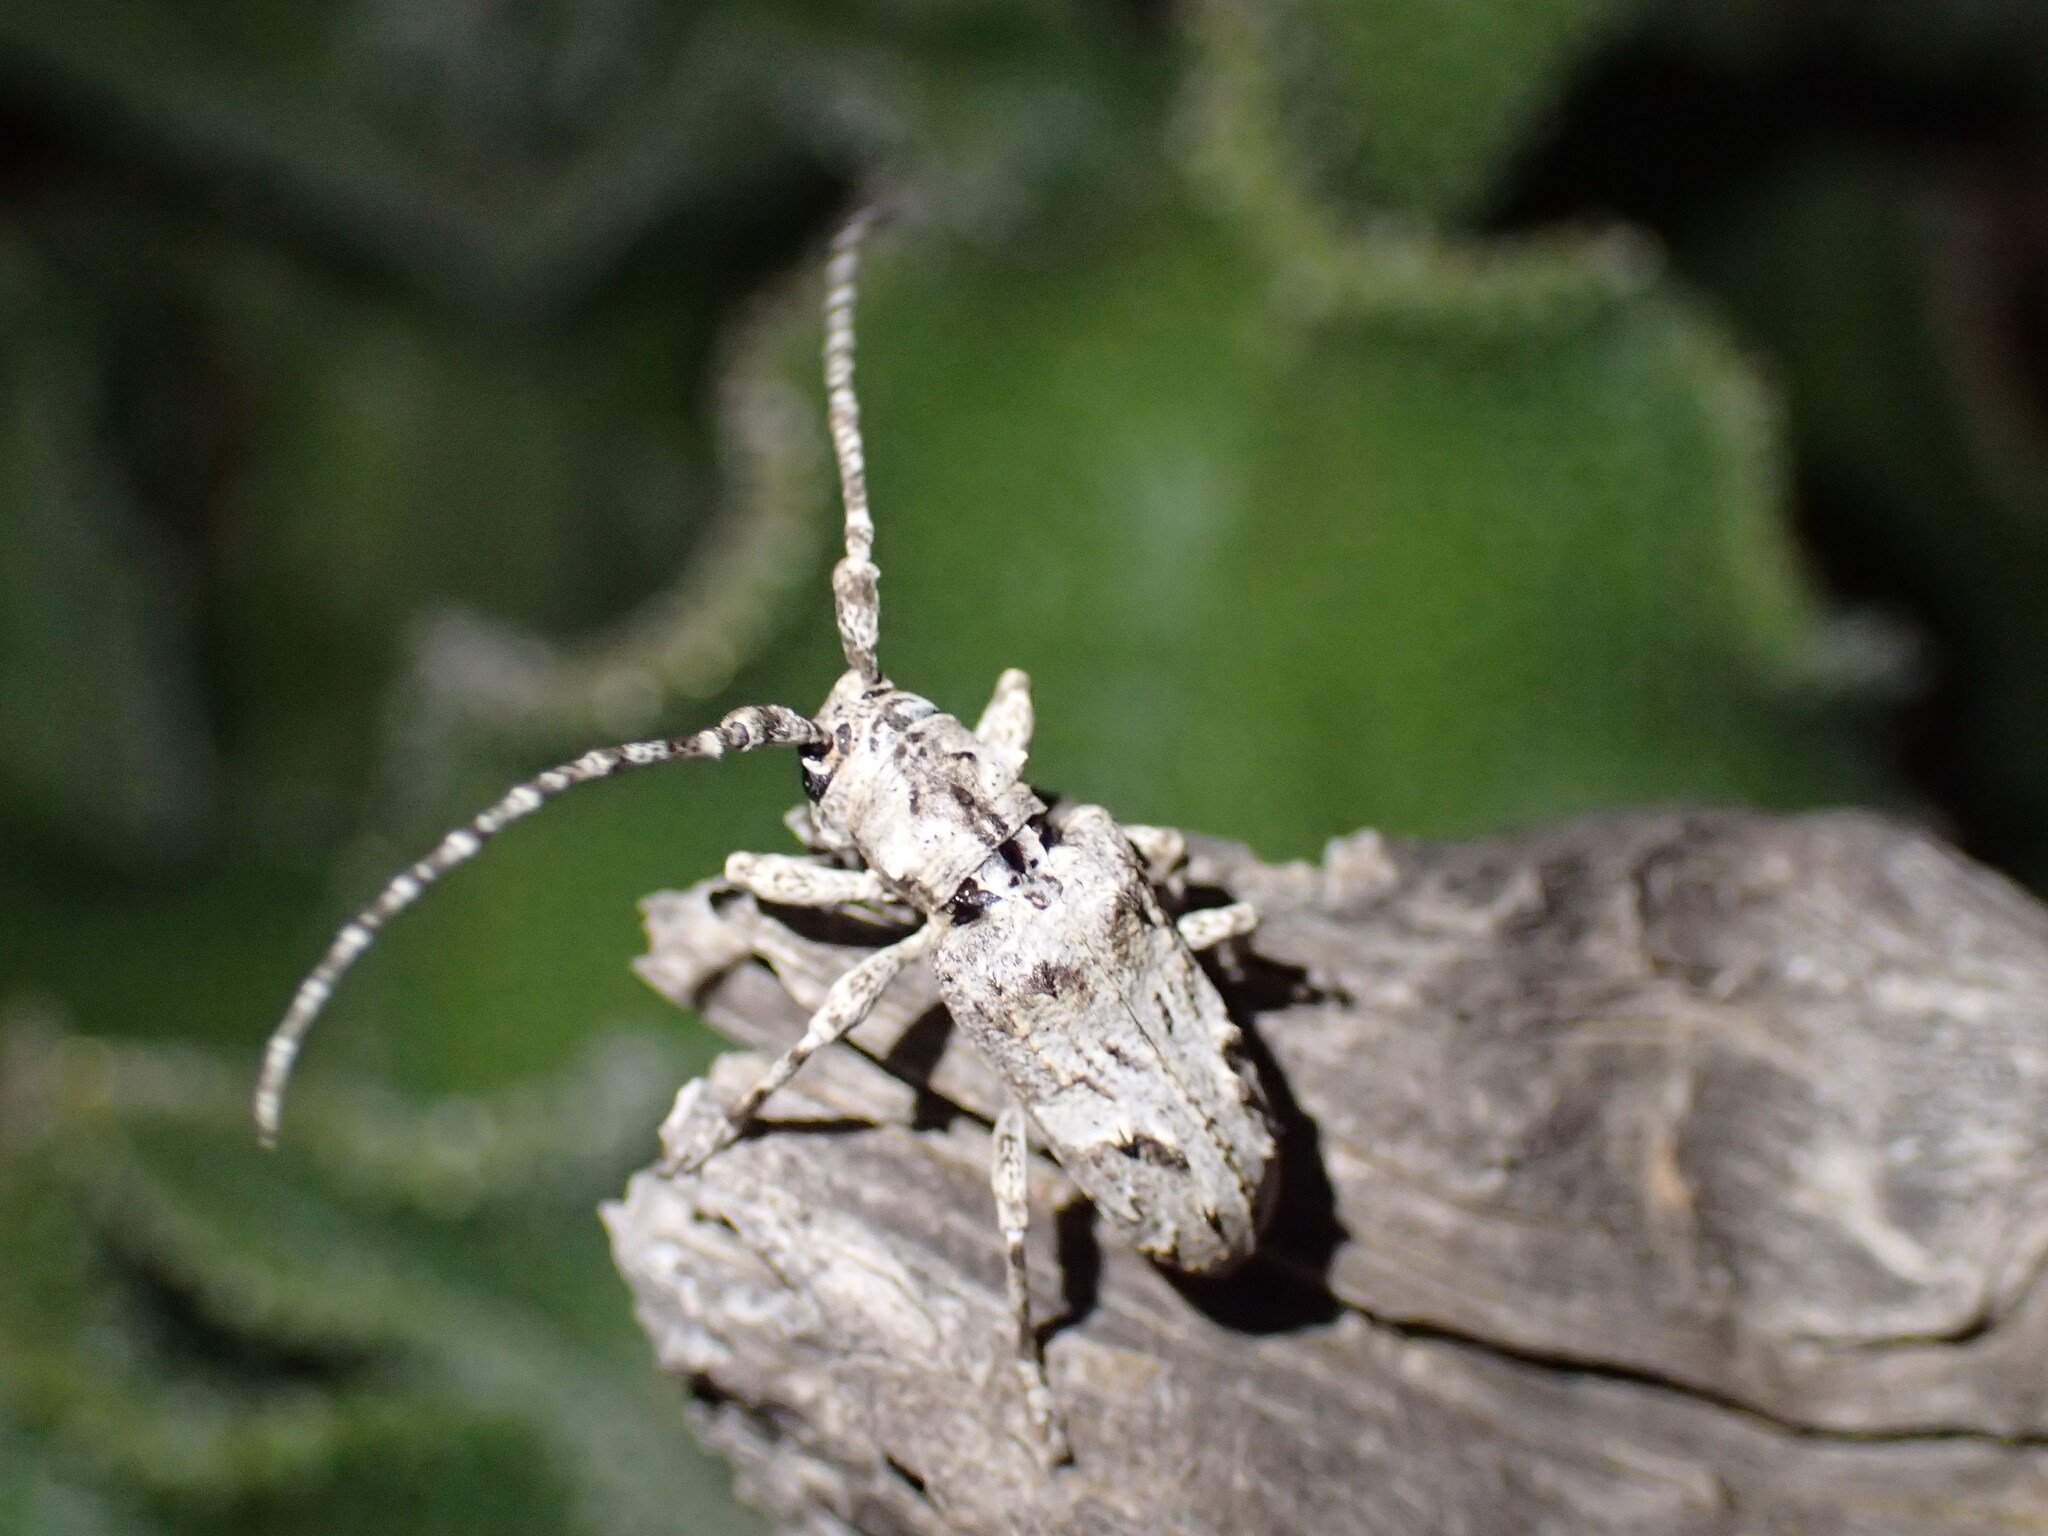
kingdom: Animalia
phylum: Arthropoda
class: Insecta
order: Coleoptera
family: Cerambycidae
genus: Idactus
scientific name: Idactus strandi
